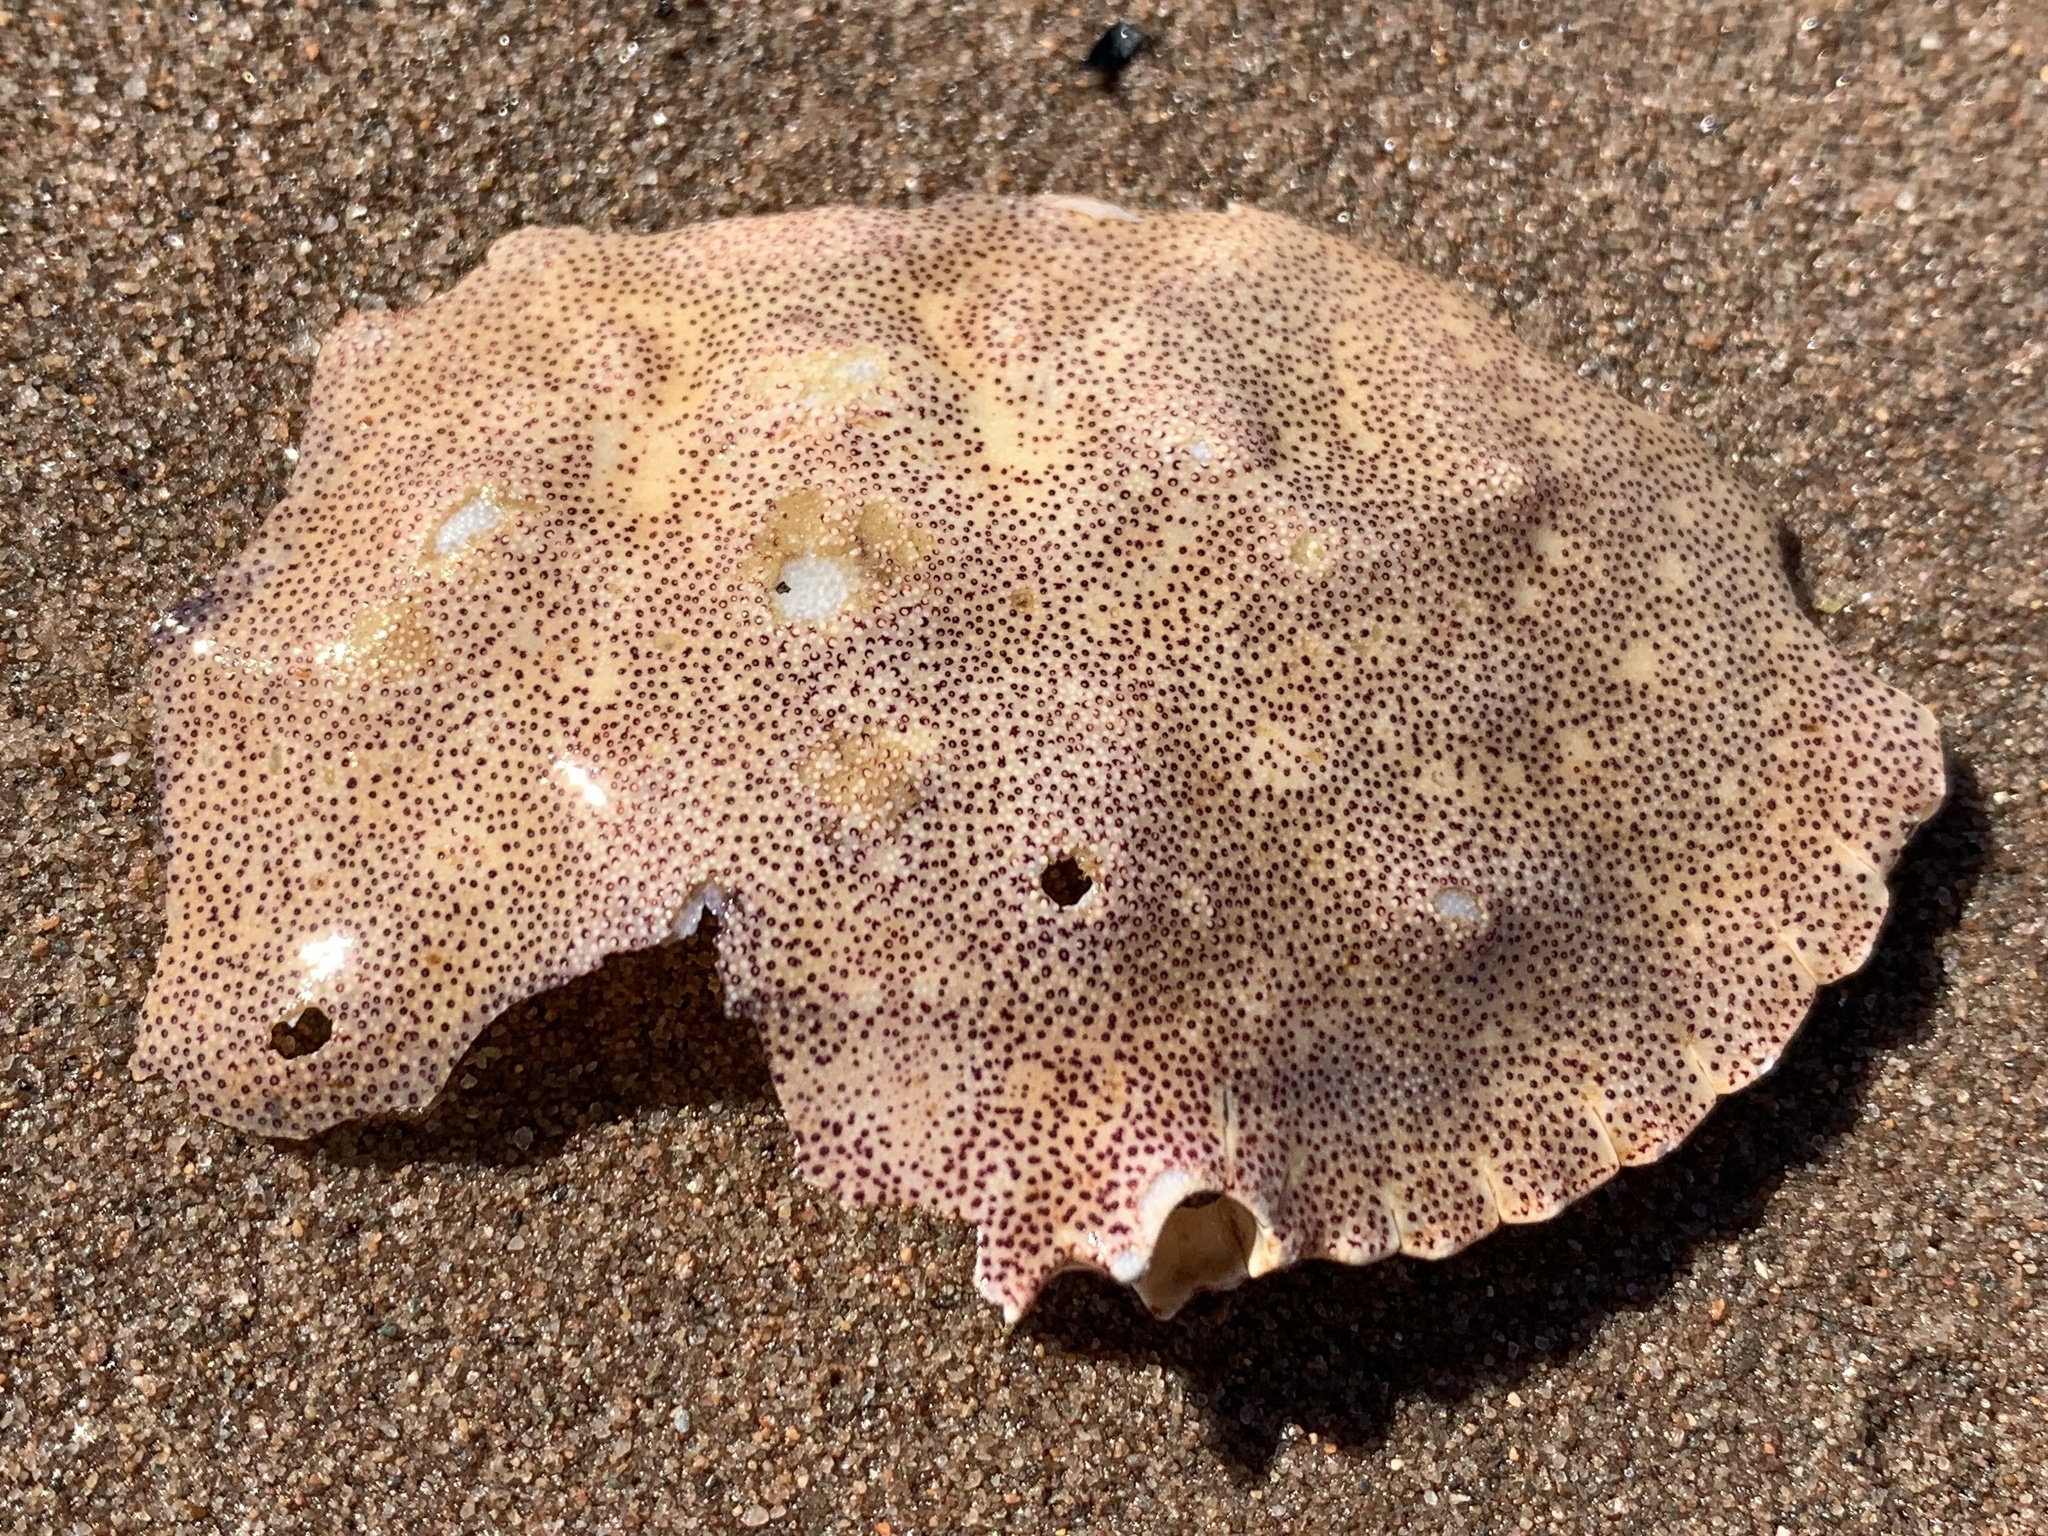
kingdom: Animalia
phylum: Arthropoda
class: Malacostraca
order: Decapoda
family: Cancridae
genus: Cancer
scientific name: Cancer irroratus
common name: Atlantic rock crab
